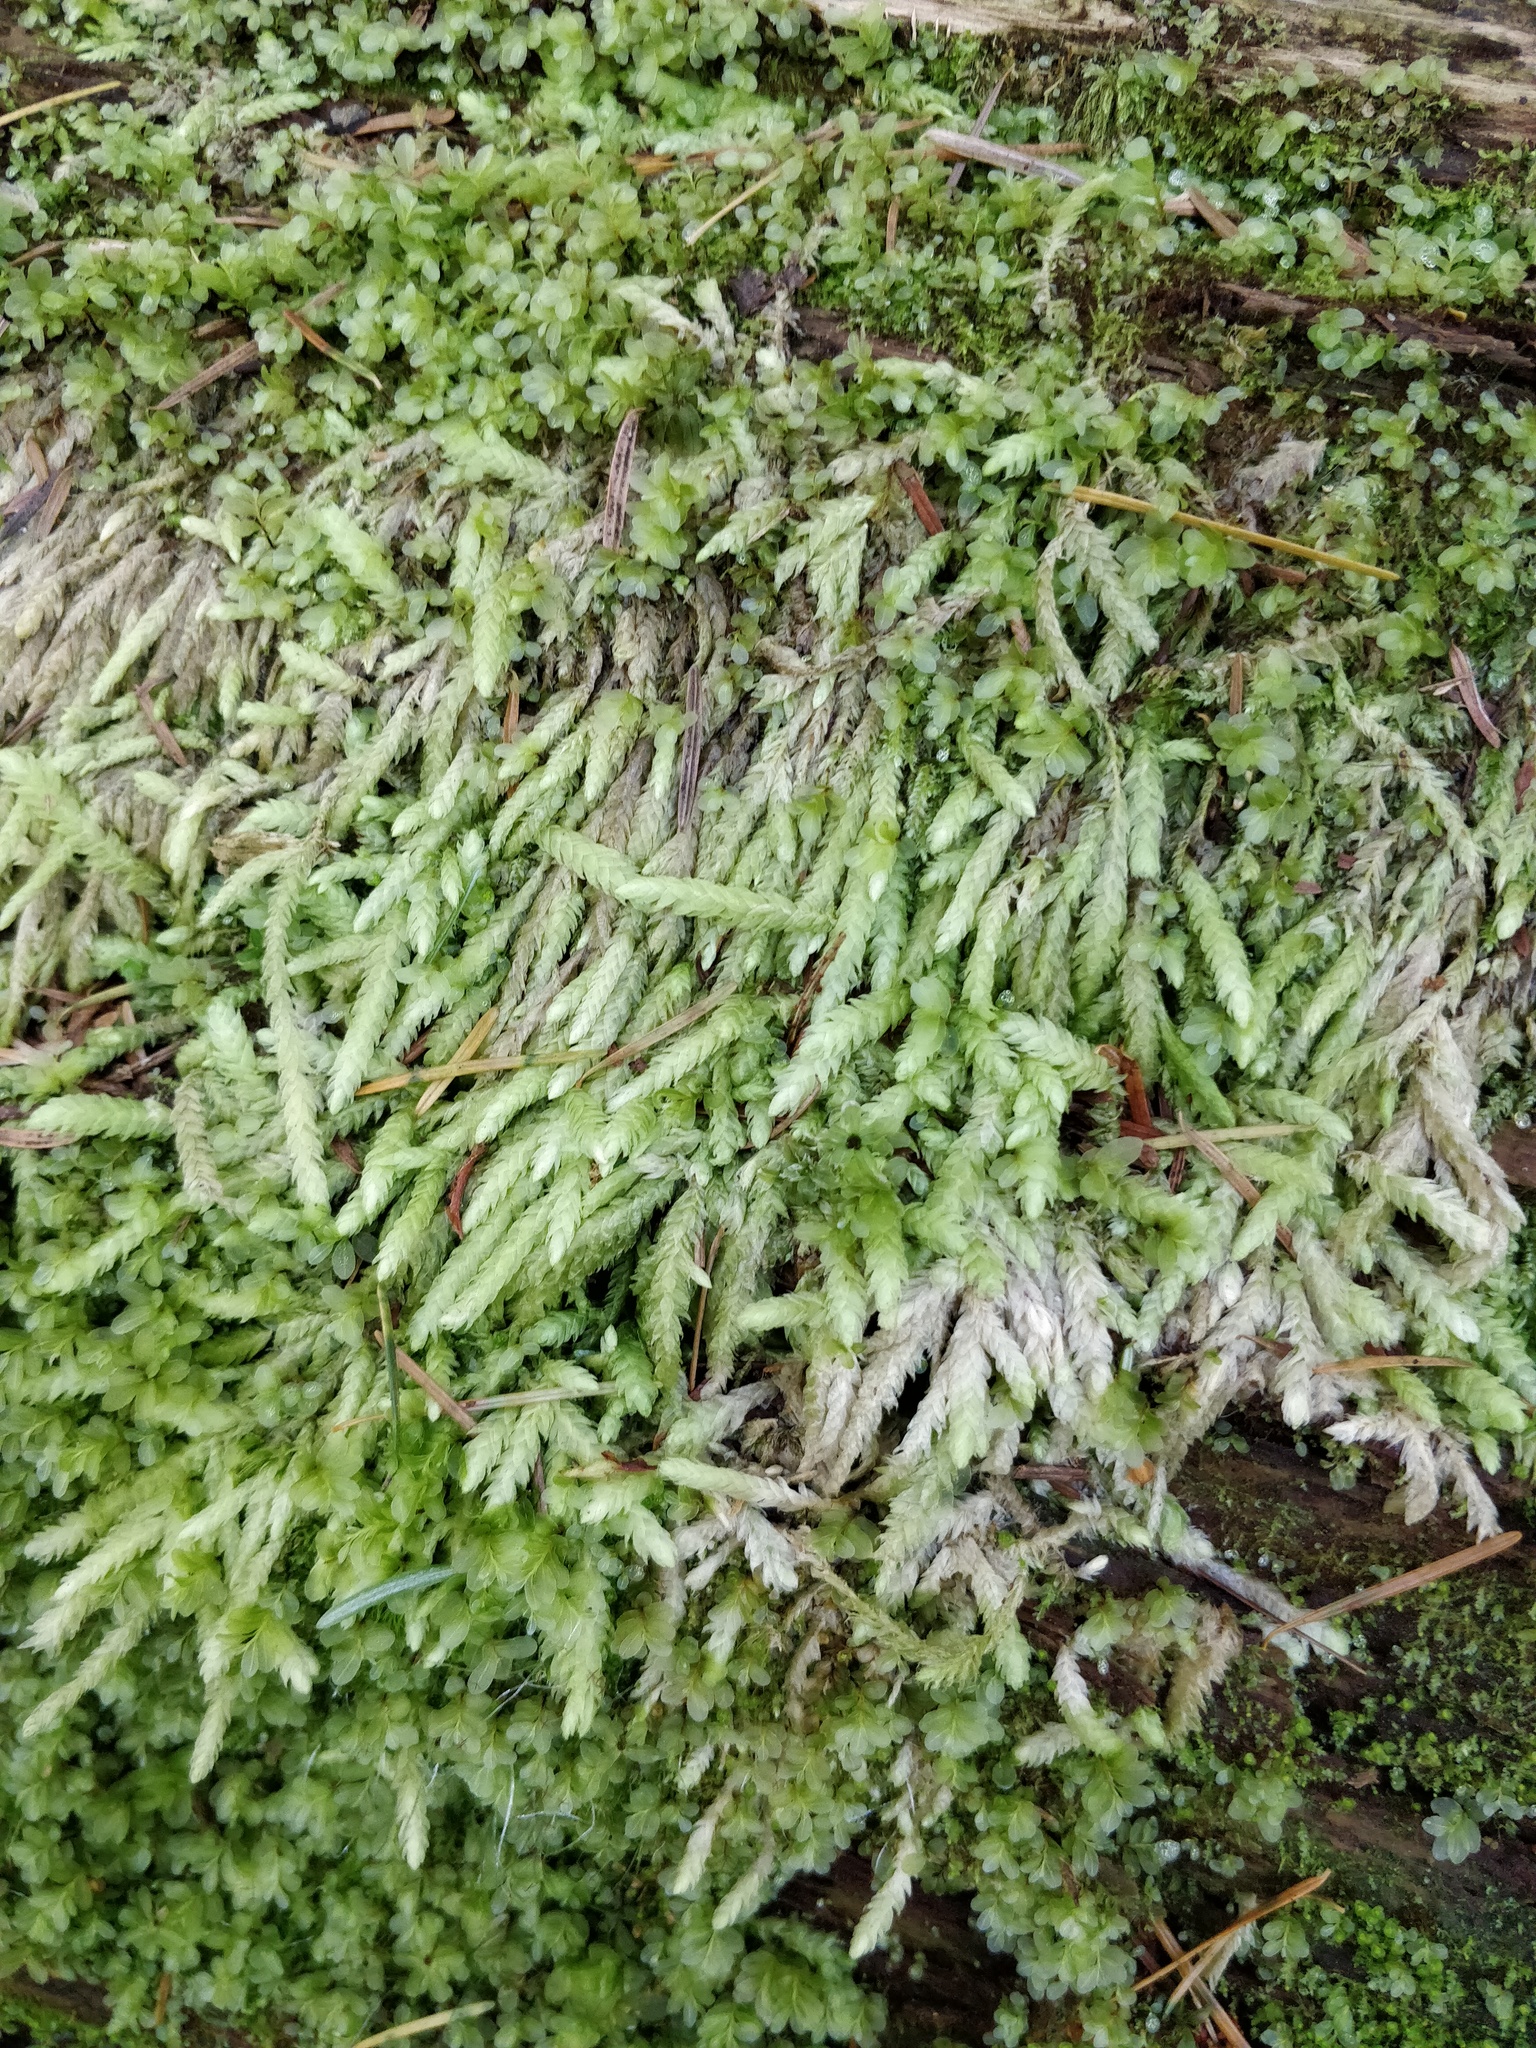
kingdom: Plantae
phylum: Bryophyta
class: Bryopsida
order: Hypnales
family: Plagiotheciaceae
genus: Plagiothecium
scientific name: Plagiothecium undulatum
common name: Waved silk-moss
